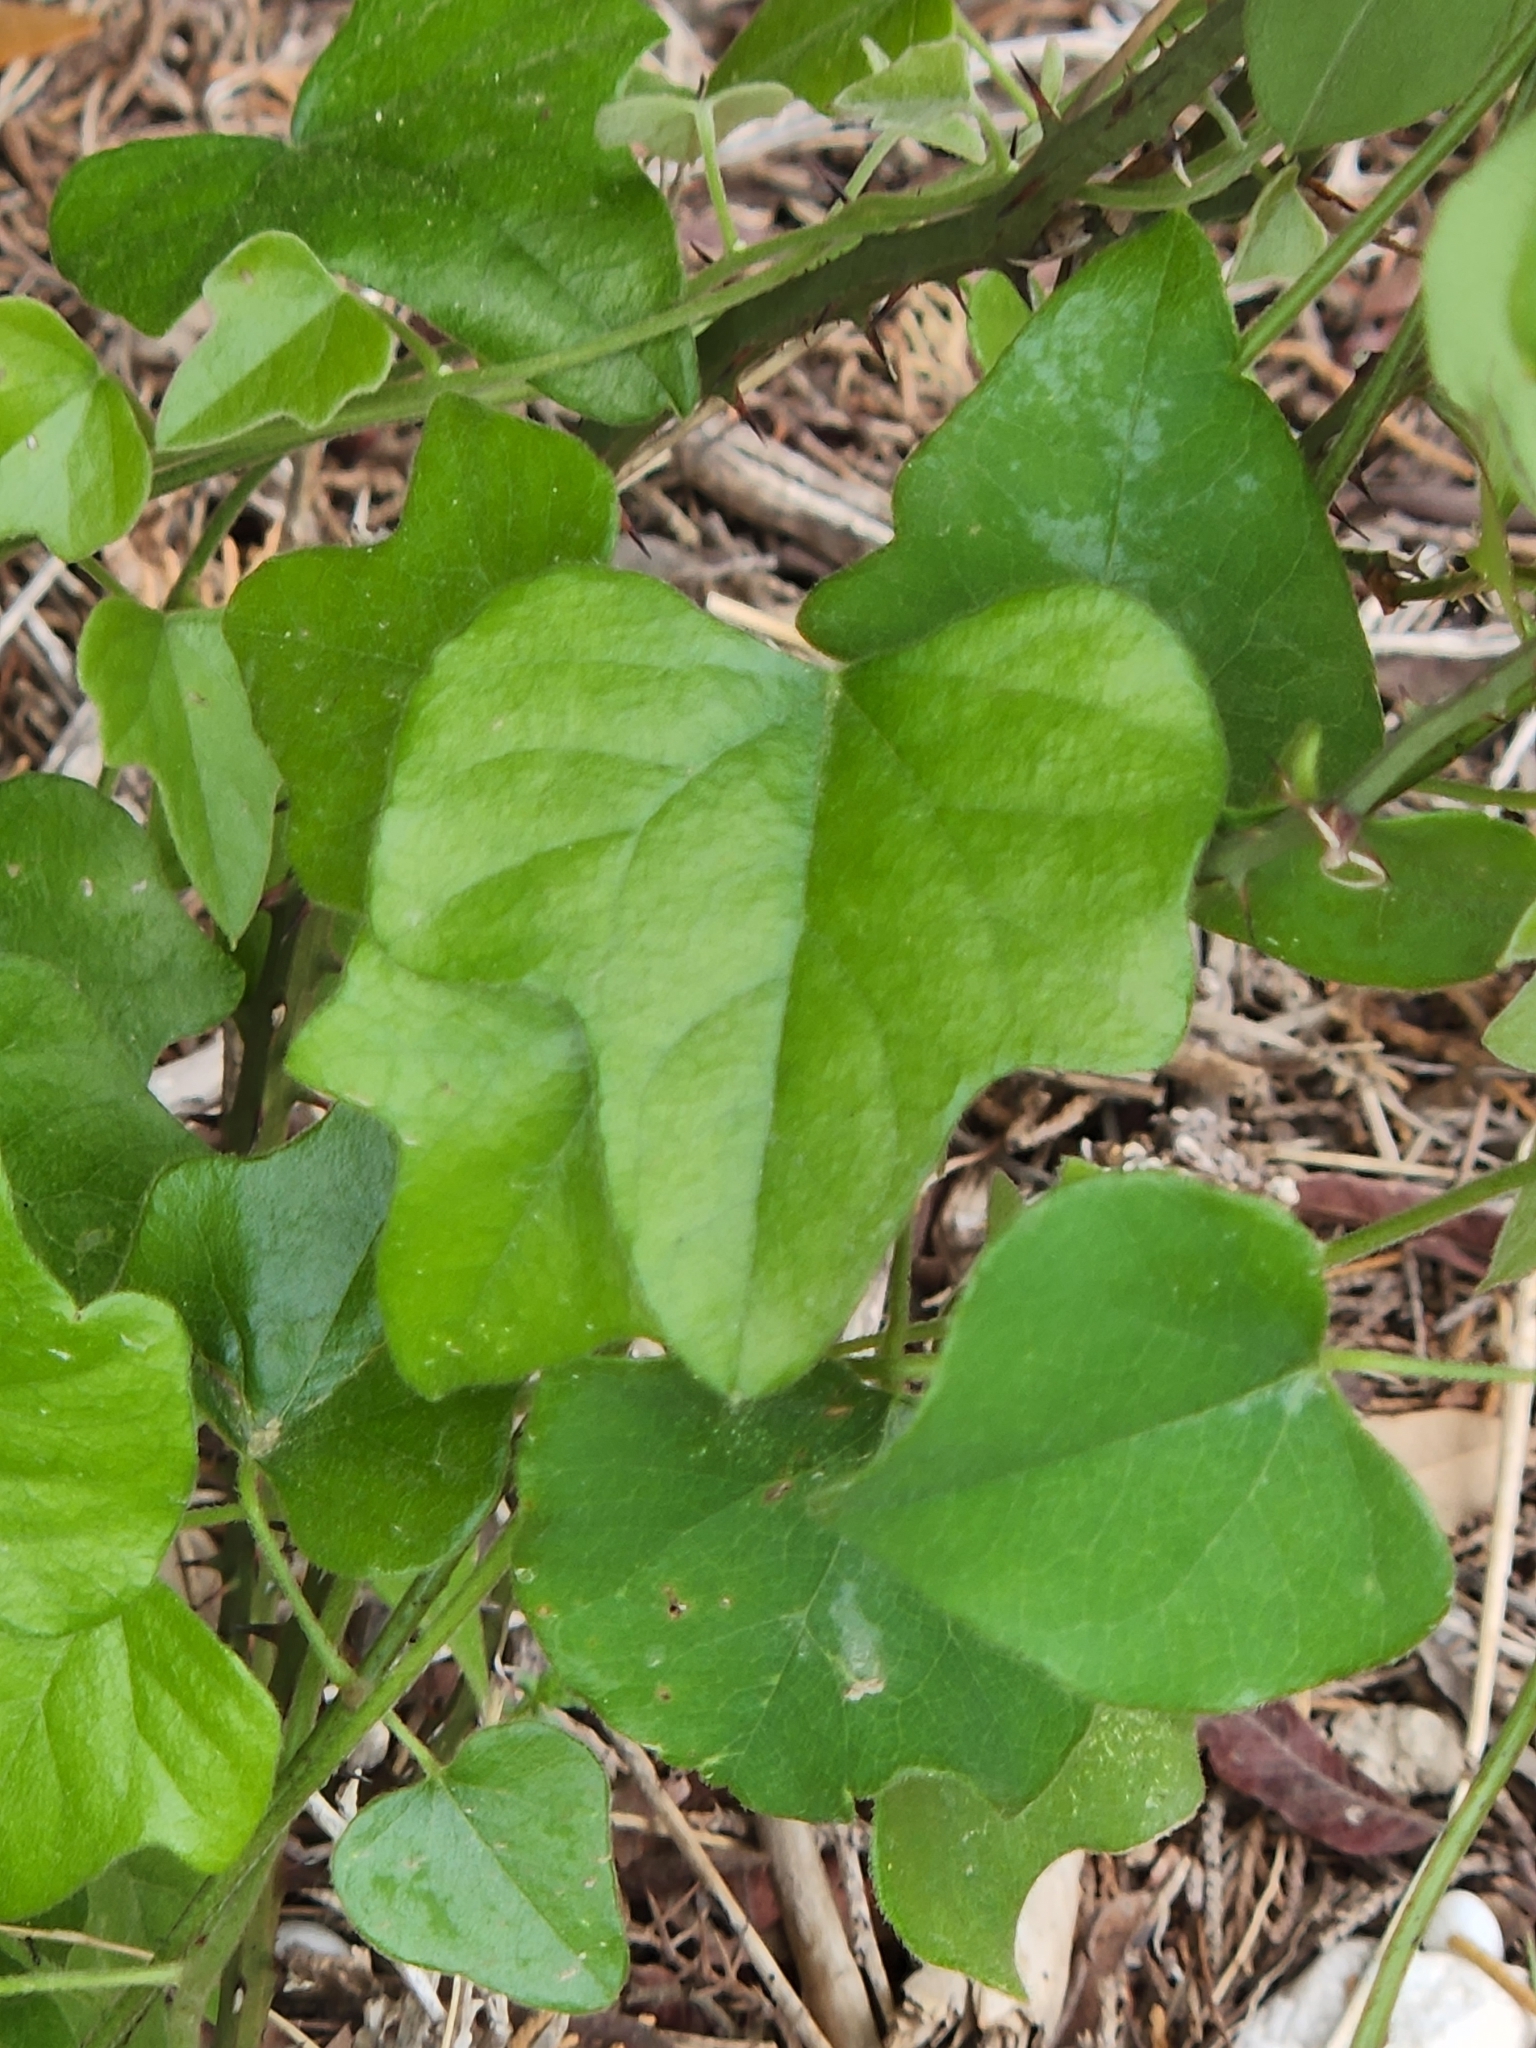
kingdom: Plantae
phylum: Tracheophyta
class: Magnoliopsida
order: Ranunculales
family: Menispermaceae
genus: Cocculus
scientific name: Cocculus carolinus
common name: Carolina moonseed
